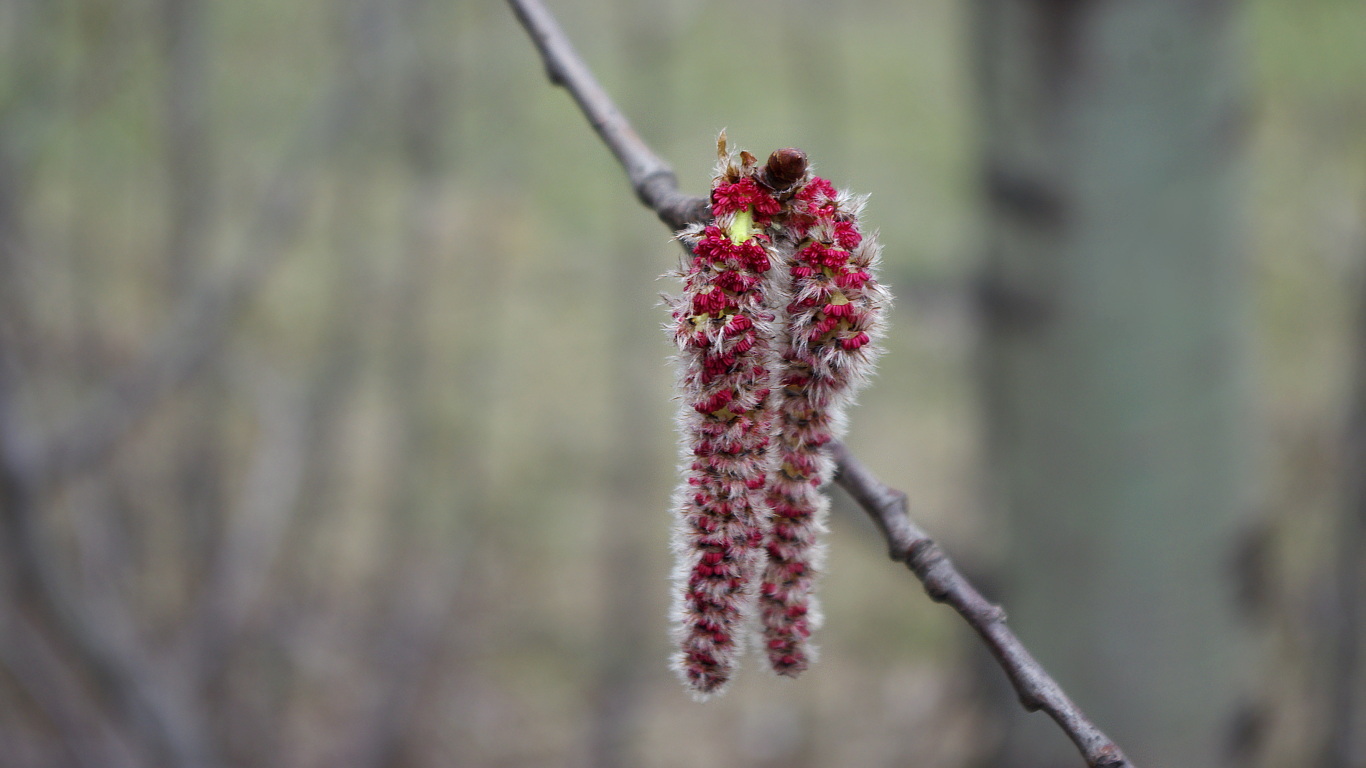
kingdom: Plantae
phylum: Tracheophyta
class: Magnoliopsida
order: Malpighiales
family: Salicaceae
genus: Populus
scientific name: Populus tremula
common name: European aspen
